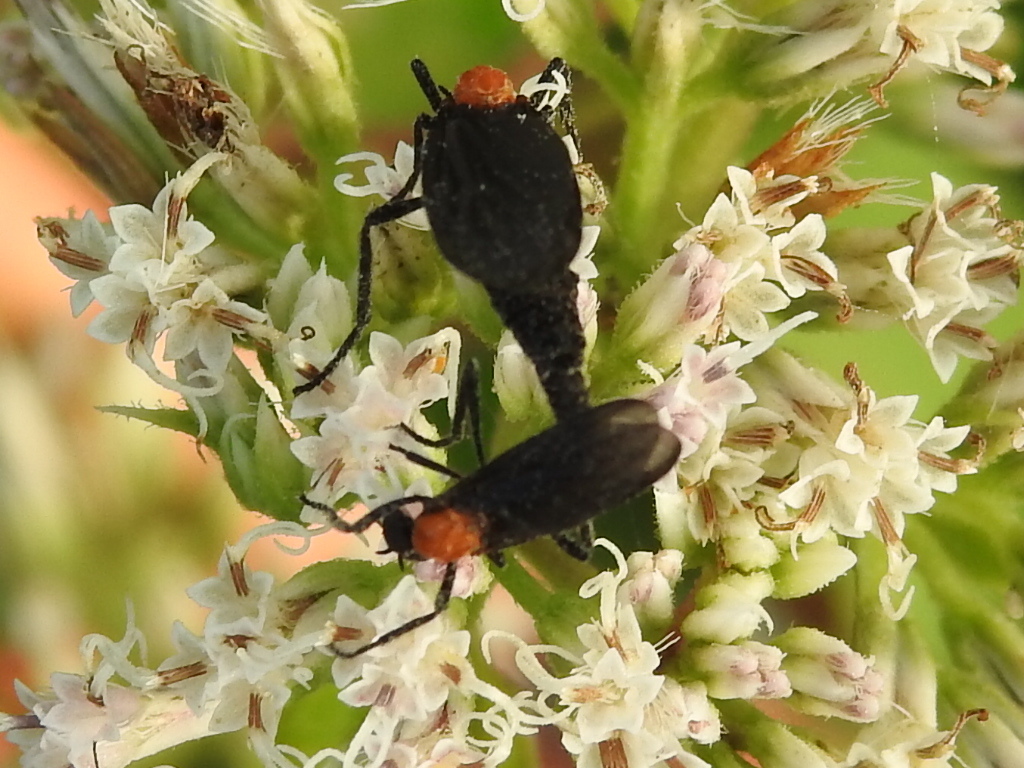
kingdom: Animalia
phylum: Arthropoda
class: Insecta
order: Diptera
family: Bibionidae
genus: Plecia
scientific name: Plecia nearctica
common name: March fly
